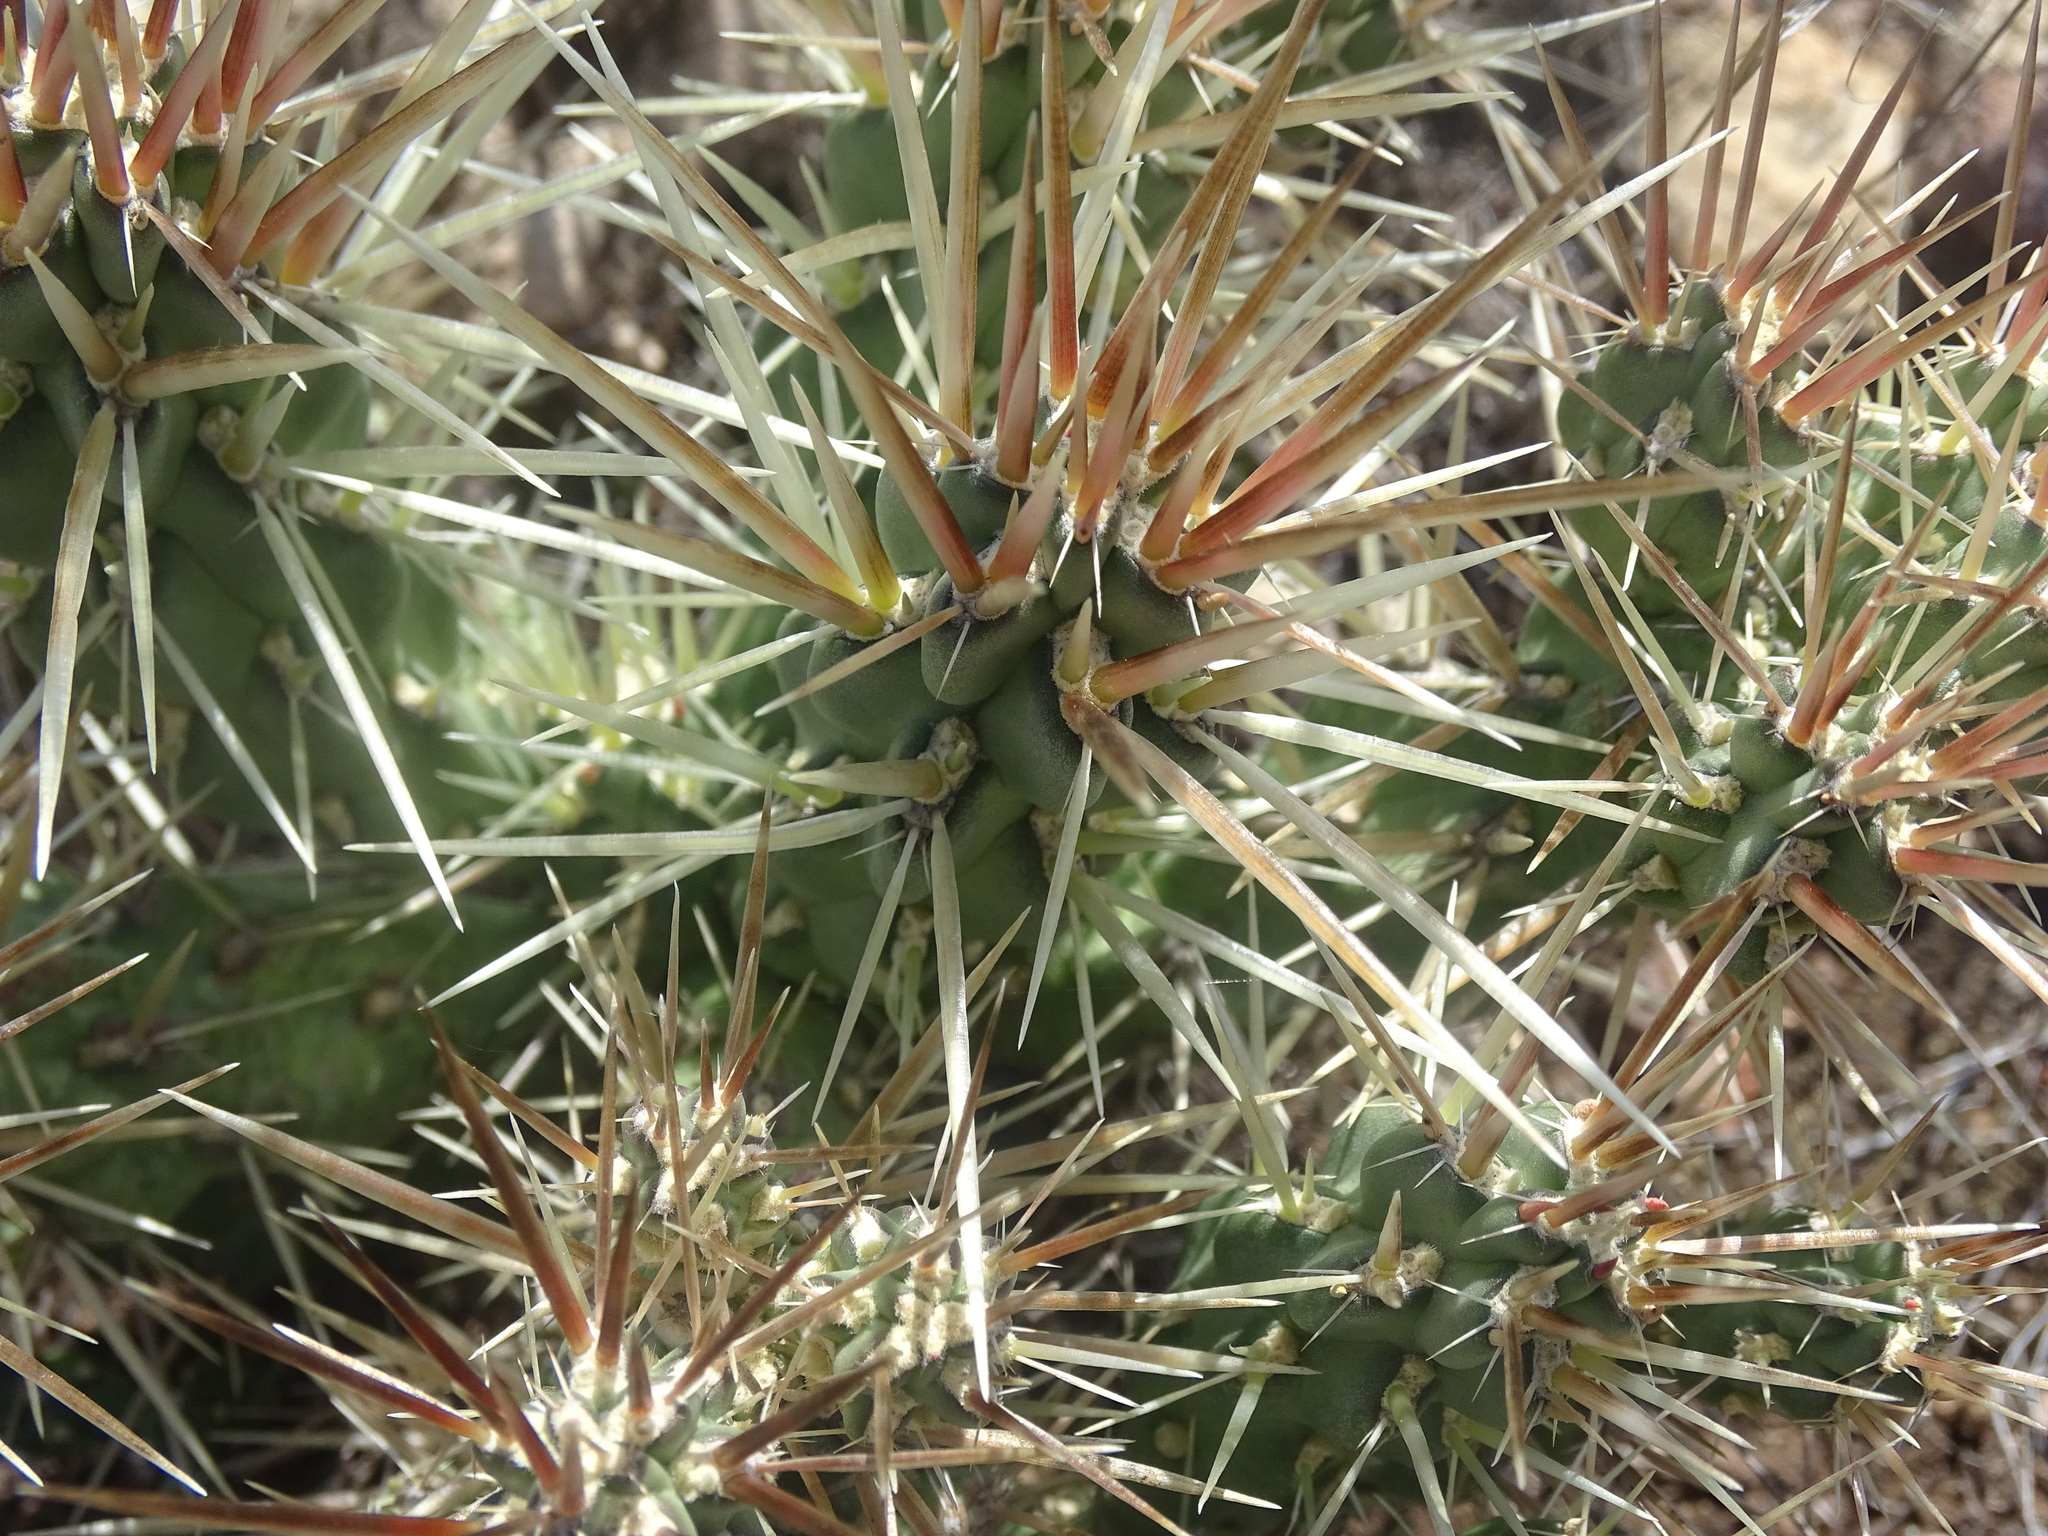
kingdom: Plantae
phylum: Tracheophyta
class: Magnoliopsida
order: Caryophyllales
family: Cactaceae
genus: Cylindropuntia
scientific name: Cylindropuntia tunicata
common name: Sheathed cholla
